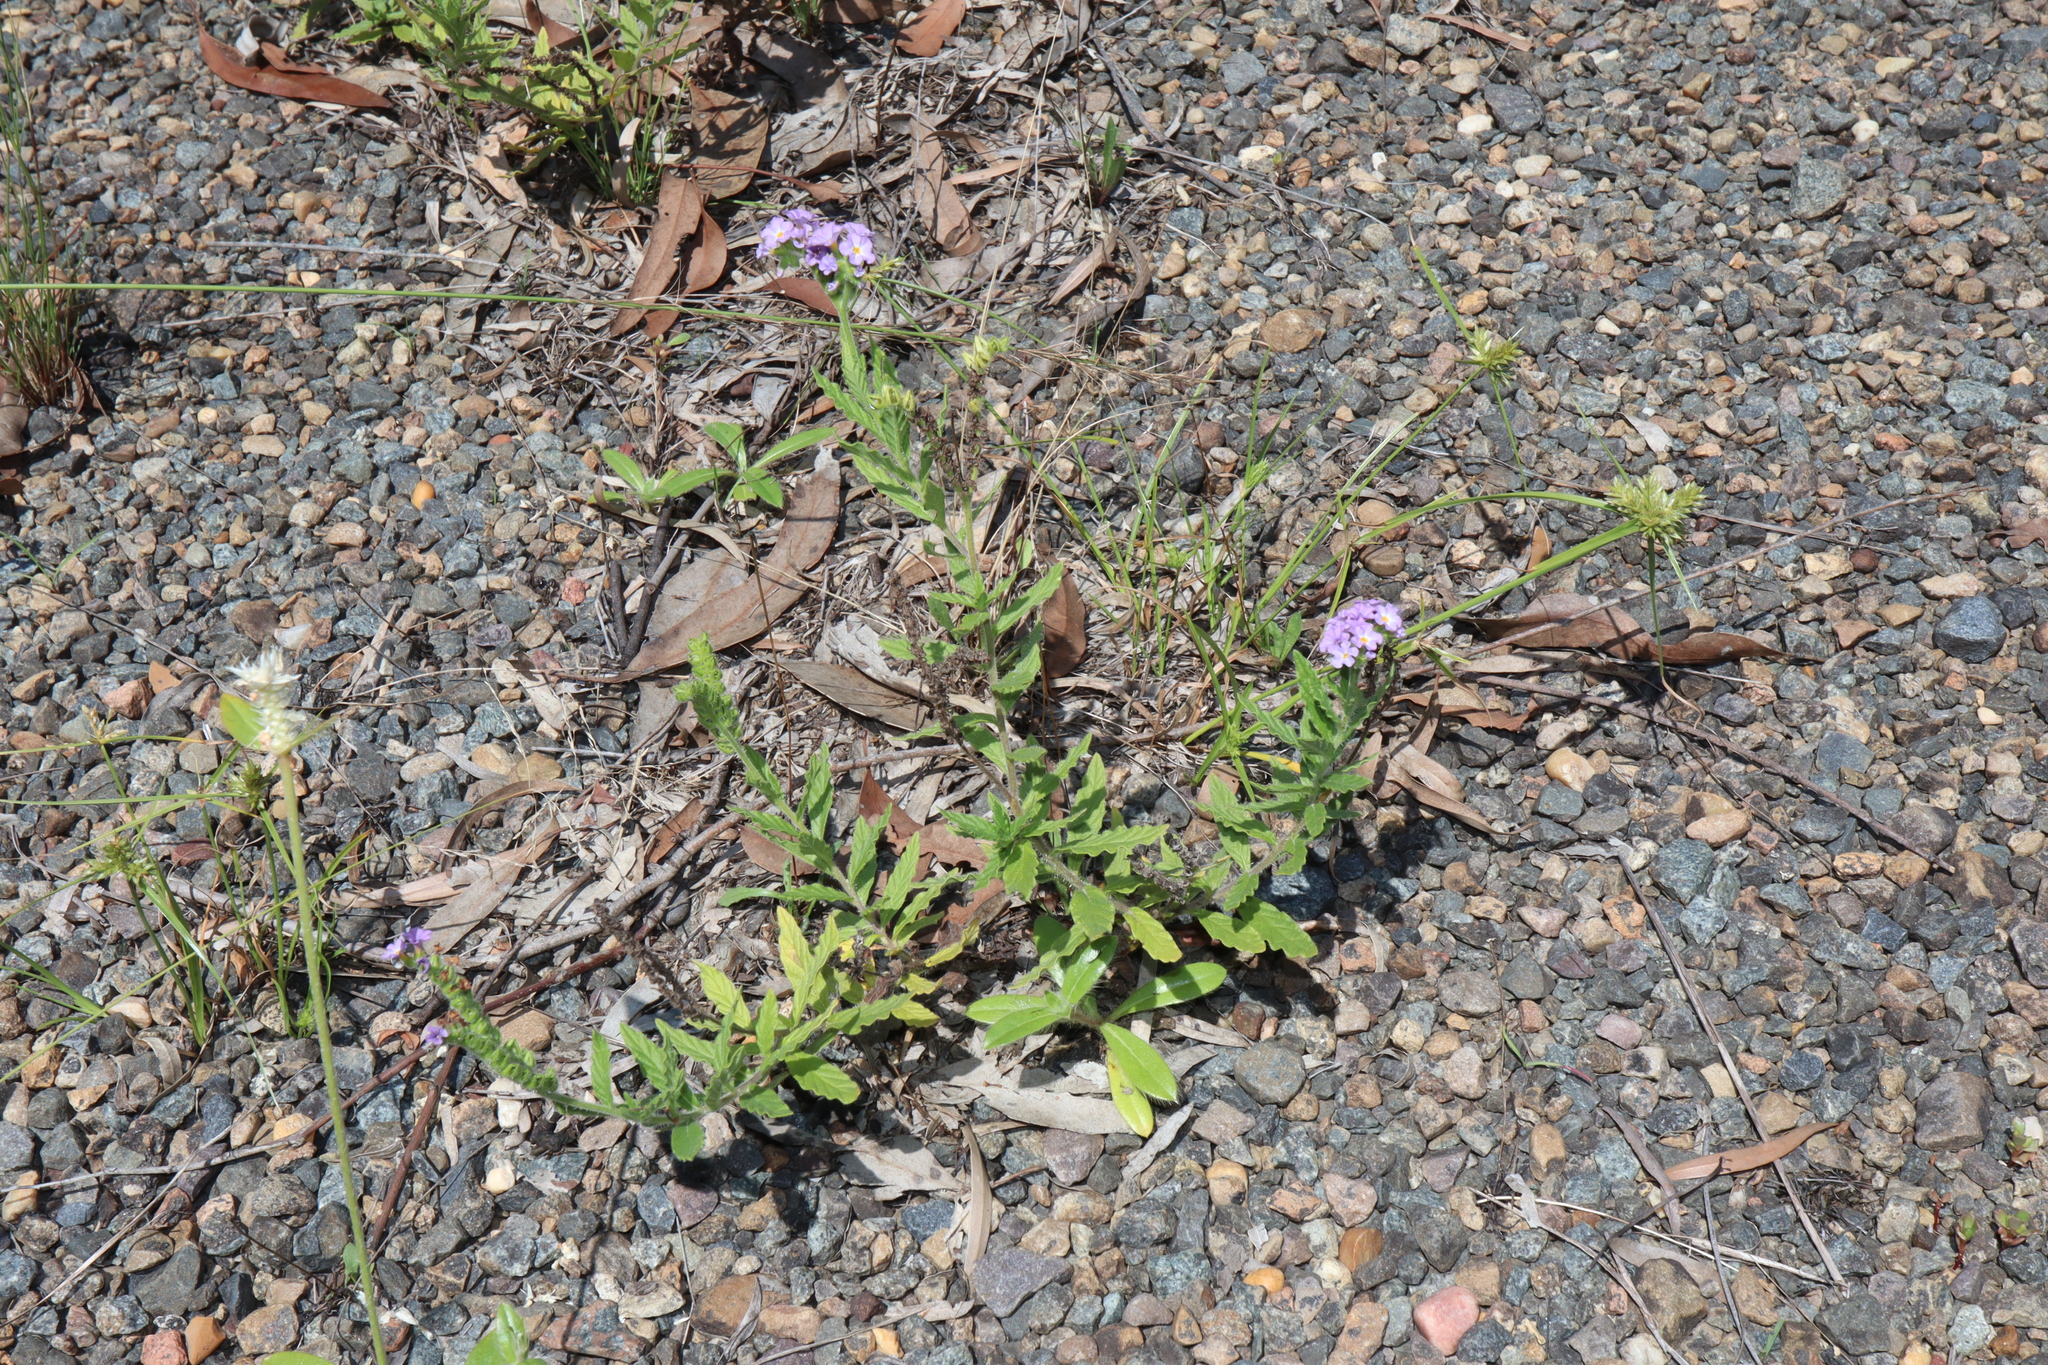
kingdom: Plantae
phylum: Tracheophyta
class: Magnoliopsida
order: Caryophyllales
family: Amaranthaceae
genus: Gomphrena
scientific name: Gomphrena celosioides
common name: Gomphrena-weed
